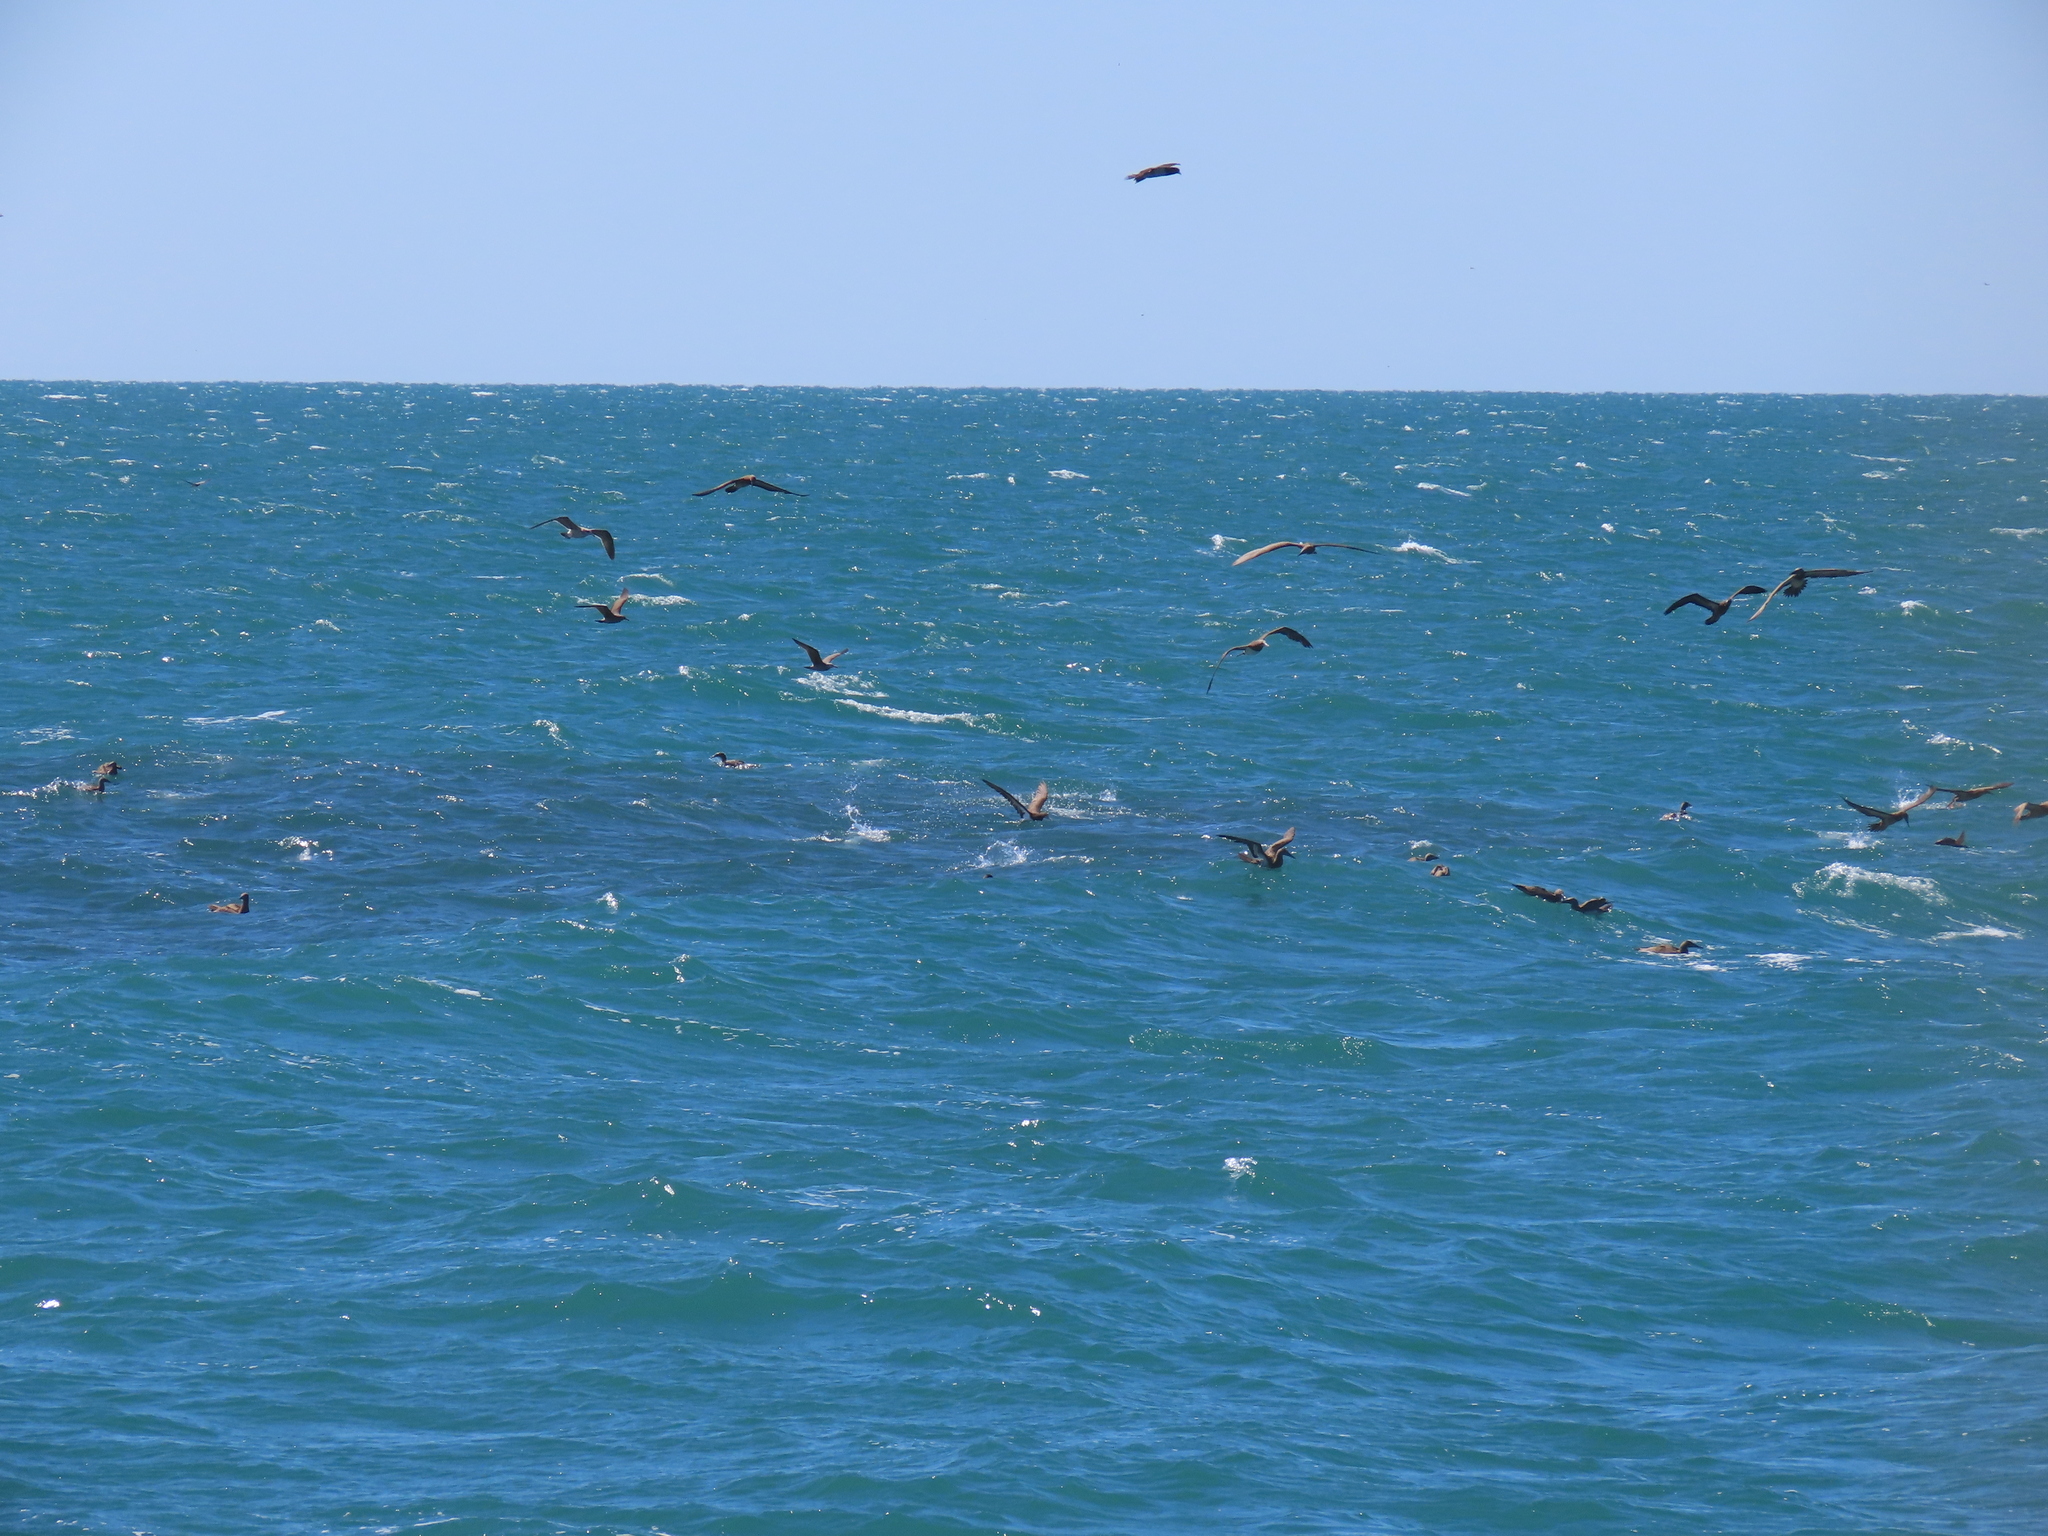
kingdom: Animalia
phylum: Chordata
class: Aves
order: Suliformes
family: Sulidae
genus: Sula
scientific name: Sula leucogaster
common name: Brown booby
